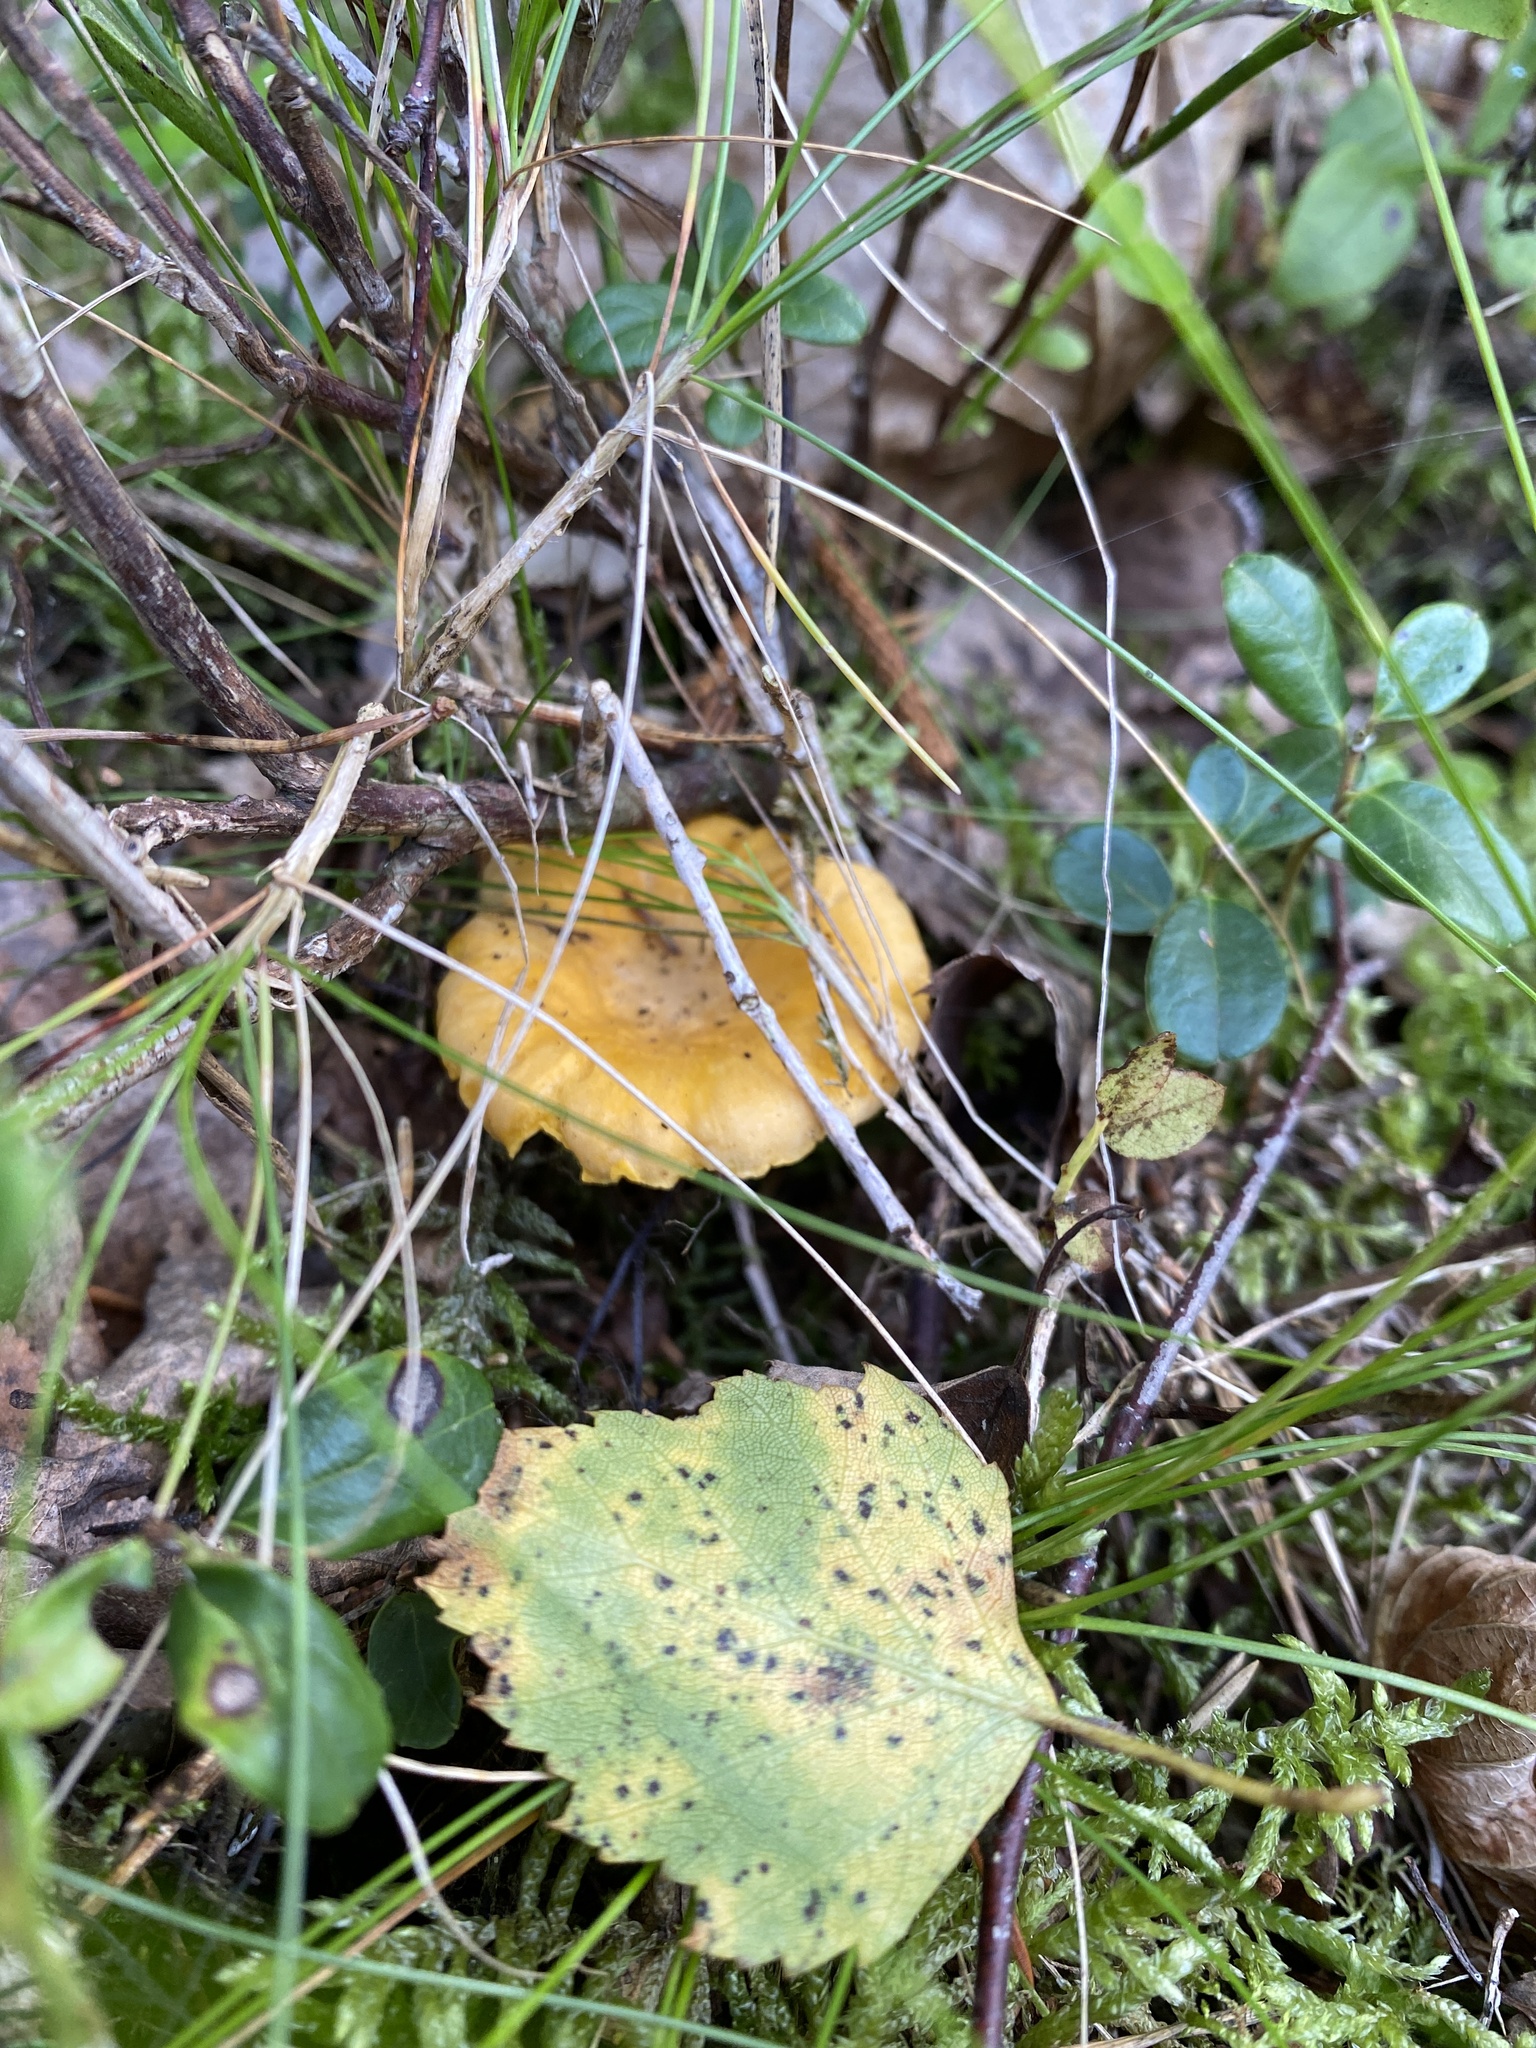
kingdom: Fungi
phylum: Basidiomycota
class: Agaricomycetes
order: Cantharellales
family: Hydnaceae
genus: Cantharellus
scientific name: Cantharellus cibarius
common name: Chanterelle
